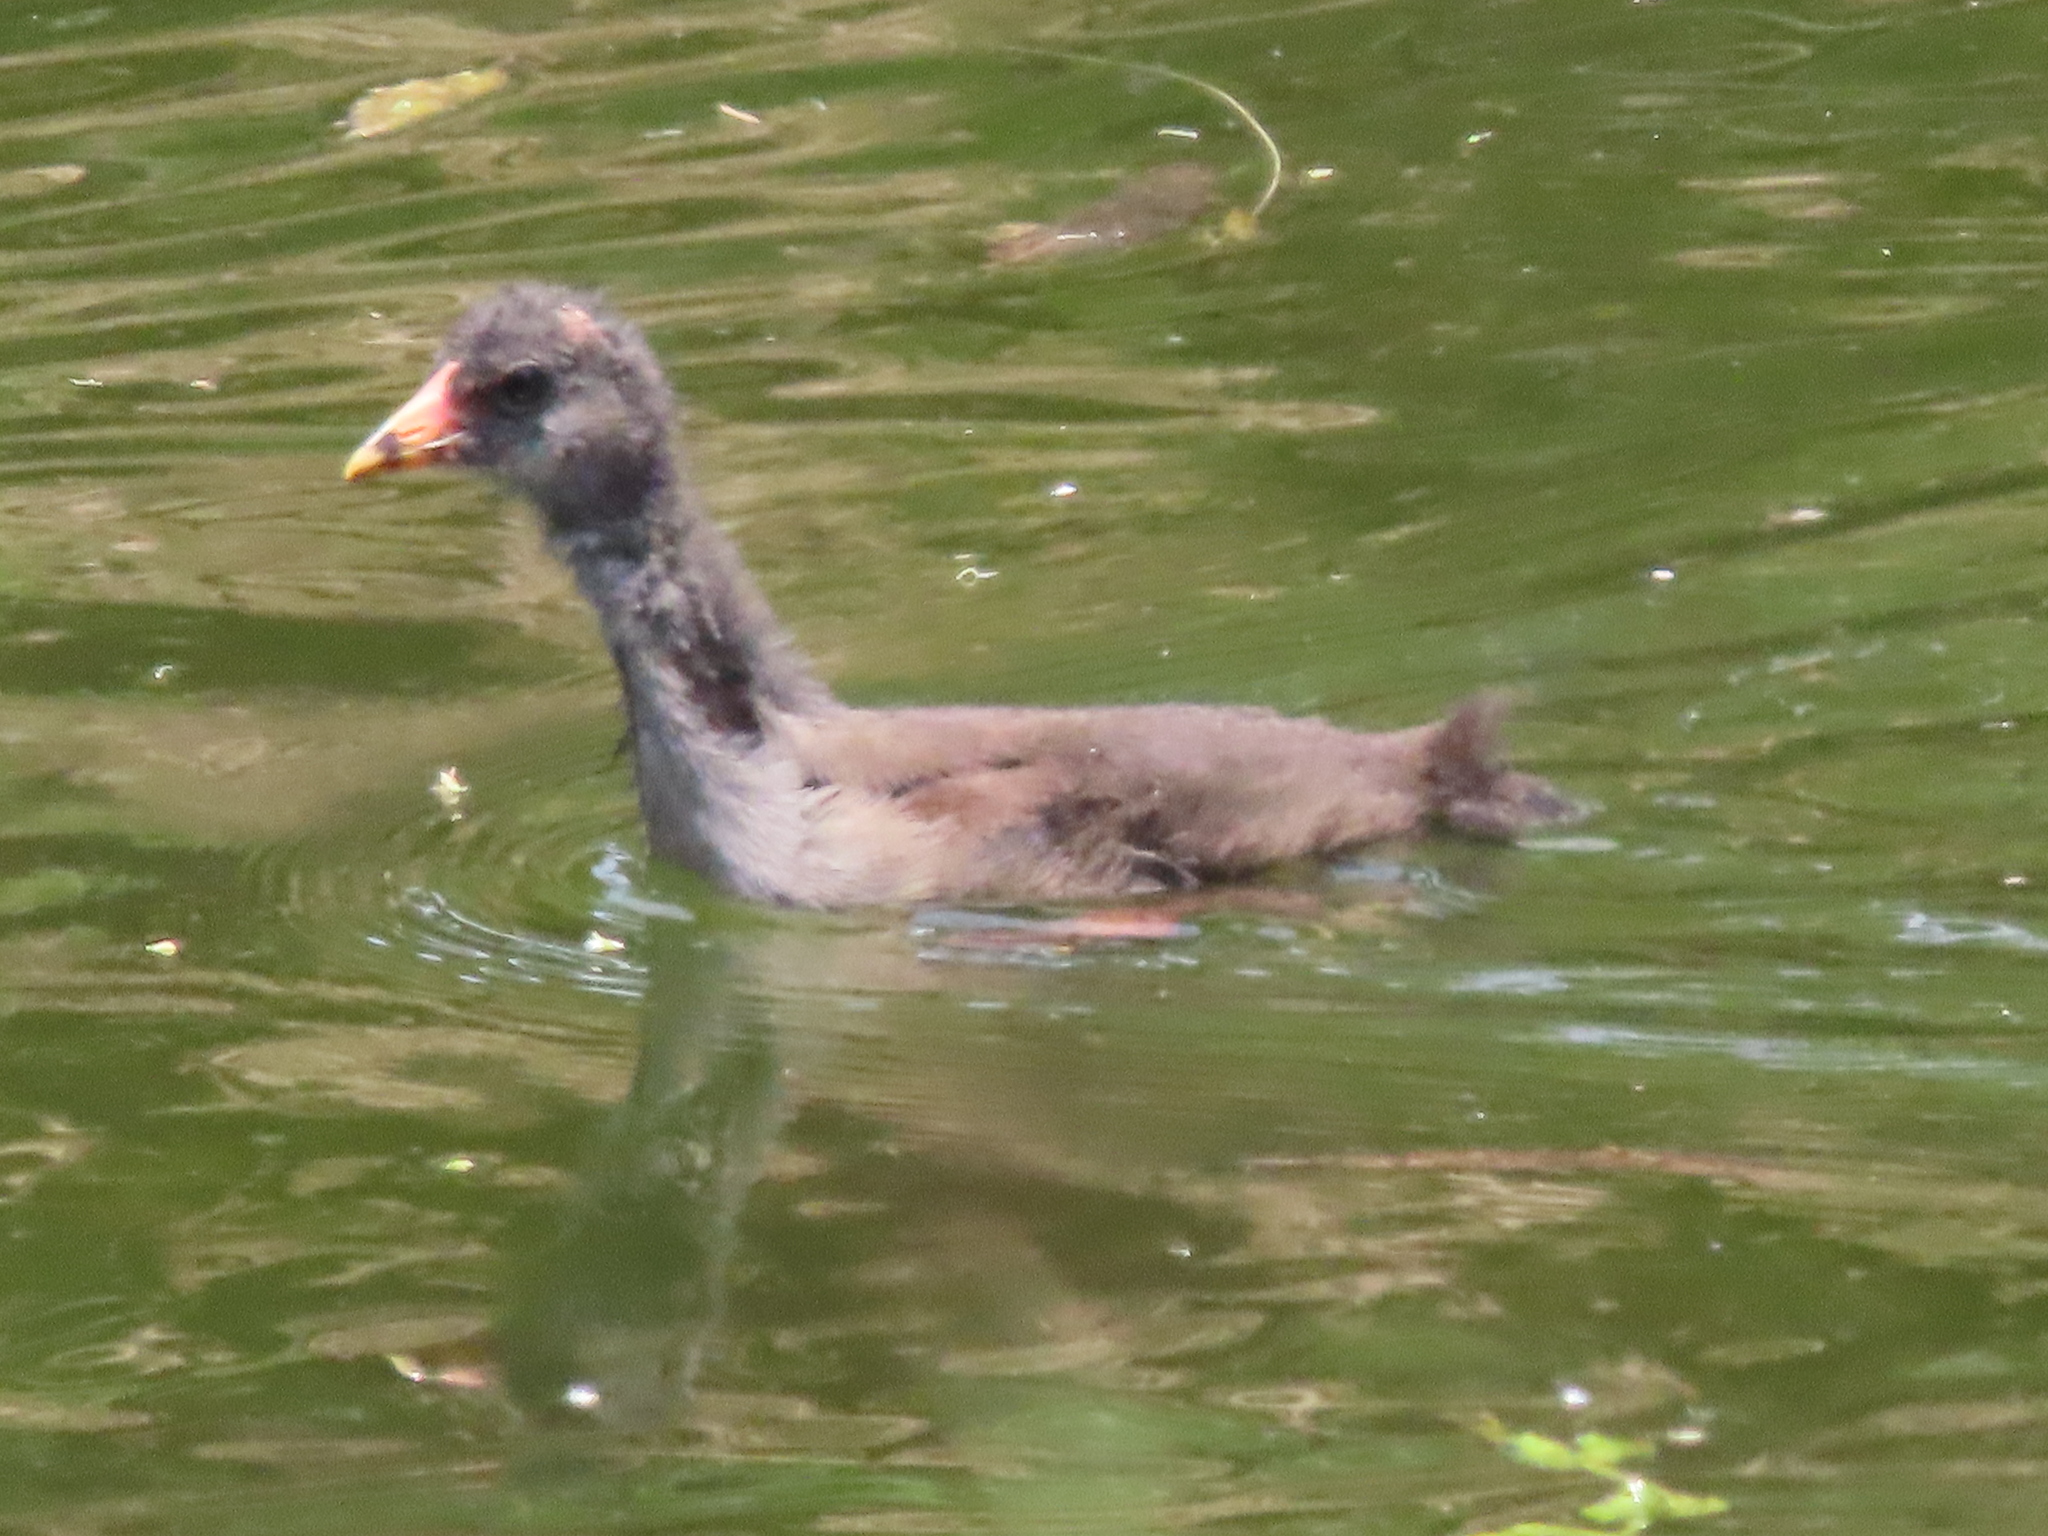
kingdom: Animalia
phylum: Chordata
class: Aves
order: Gruiformes
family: Rallidae
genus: Gallinula
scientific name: Gallinula chloropus
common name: Common moorhen
